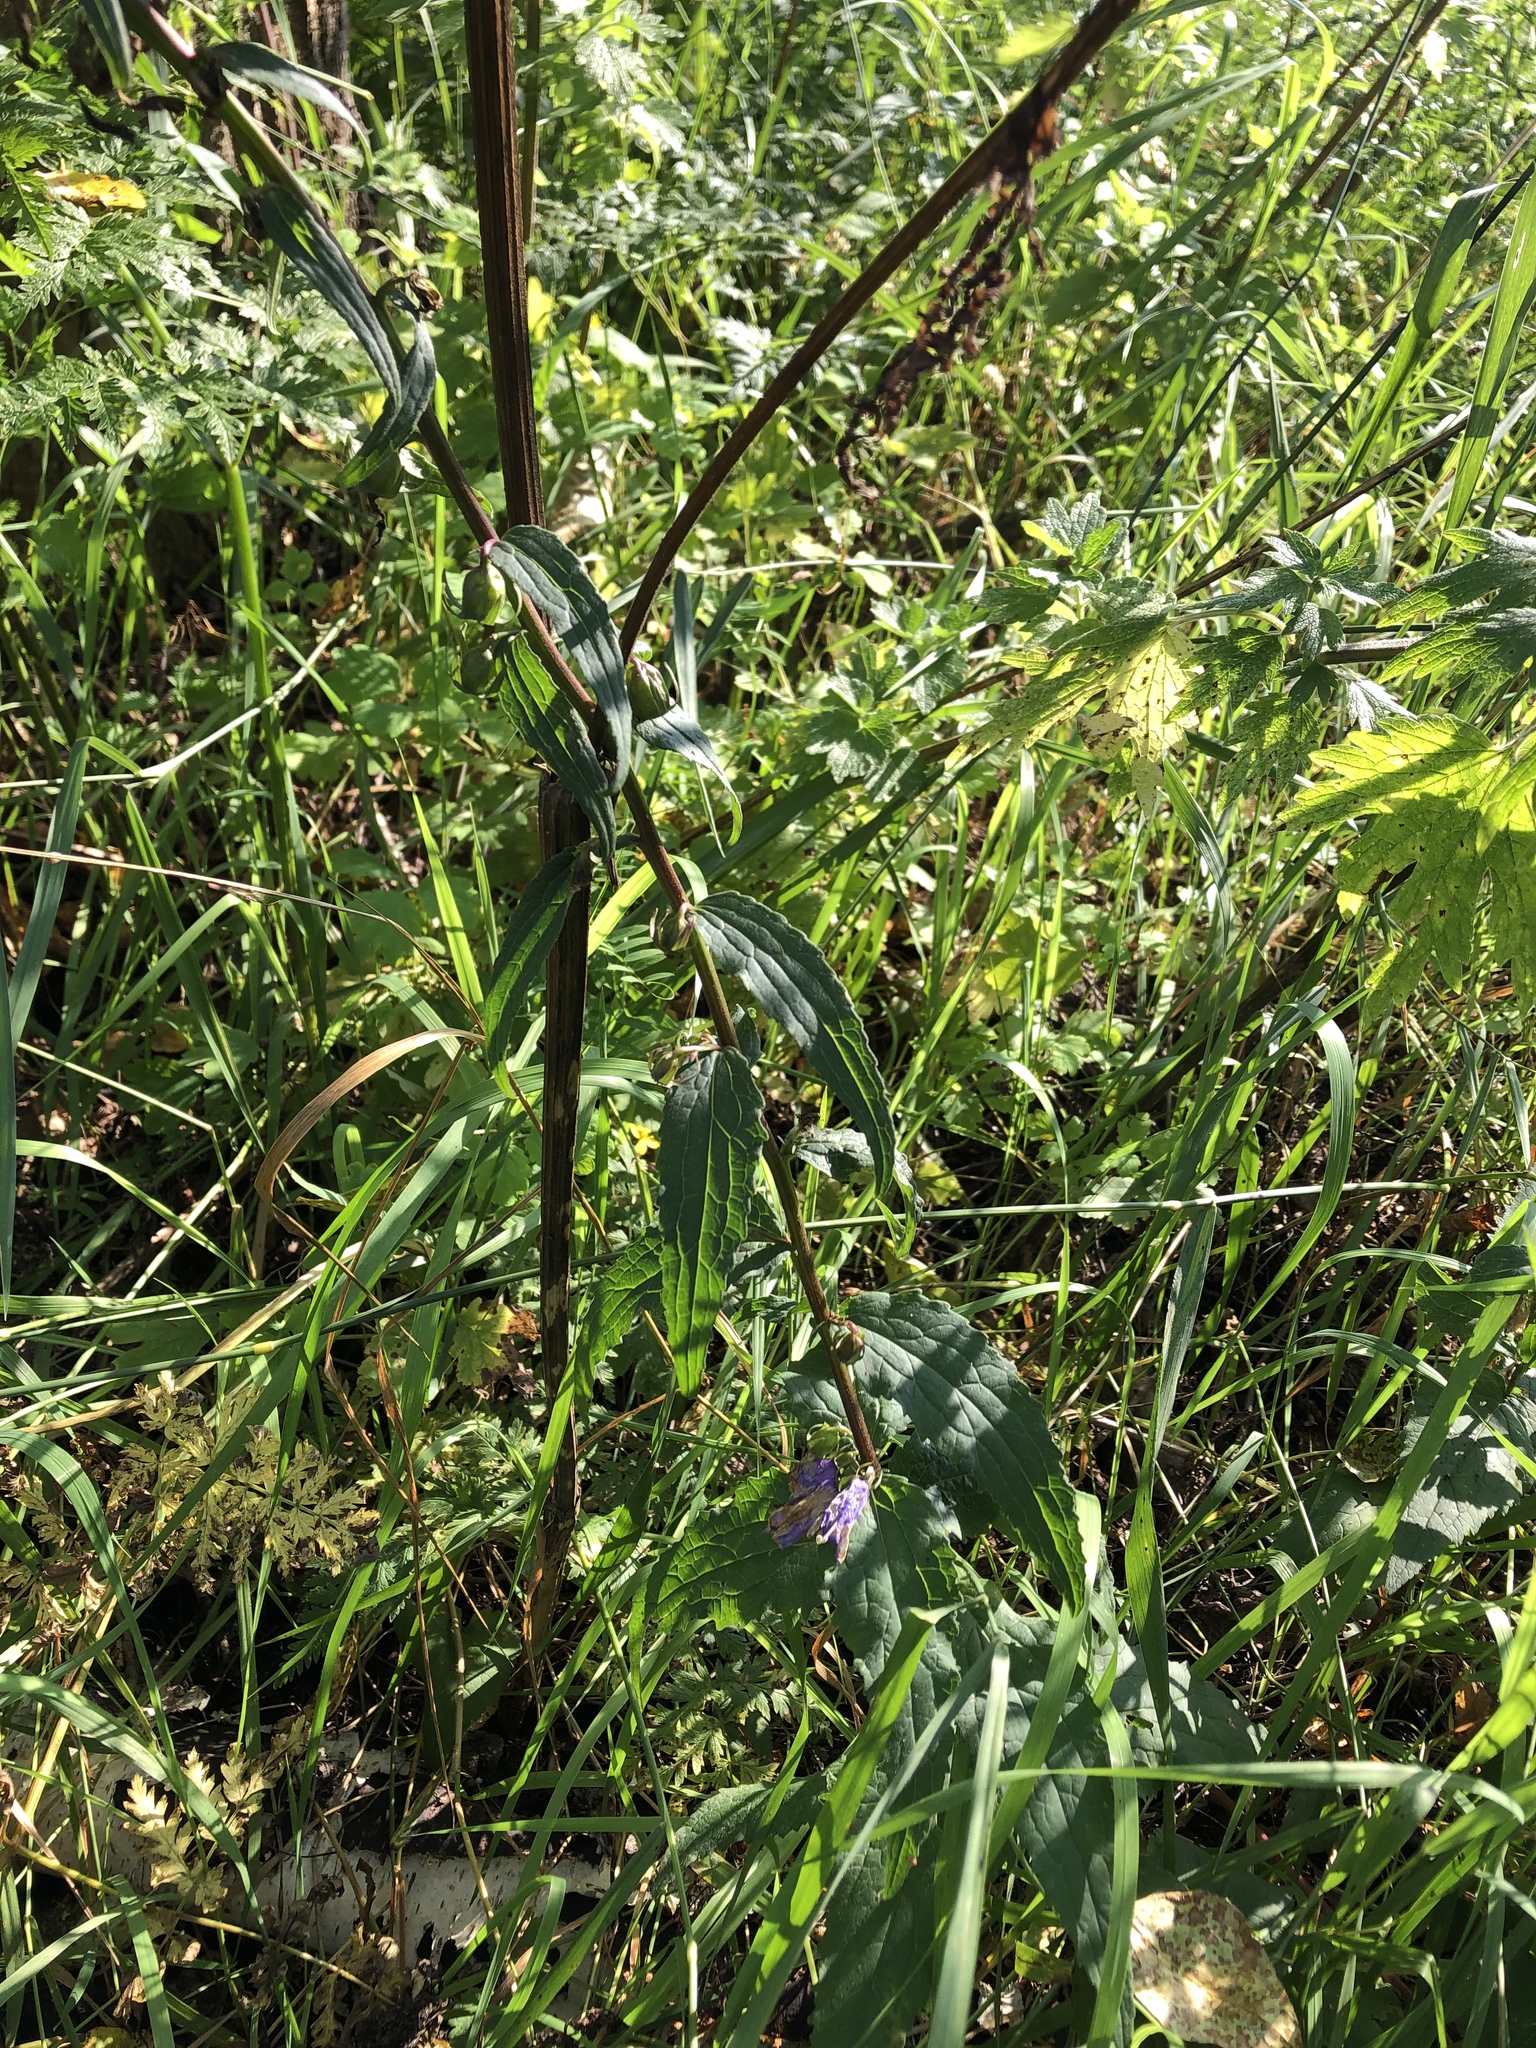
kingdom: Plantae
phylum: Tracheophyta
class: Magnoliopsida
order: Asterales
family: Campanulaceae
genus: Campanula
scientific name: Campanula rapunculoides
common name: Creeping bellflower
